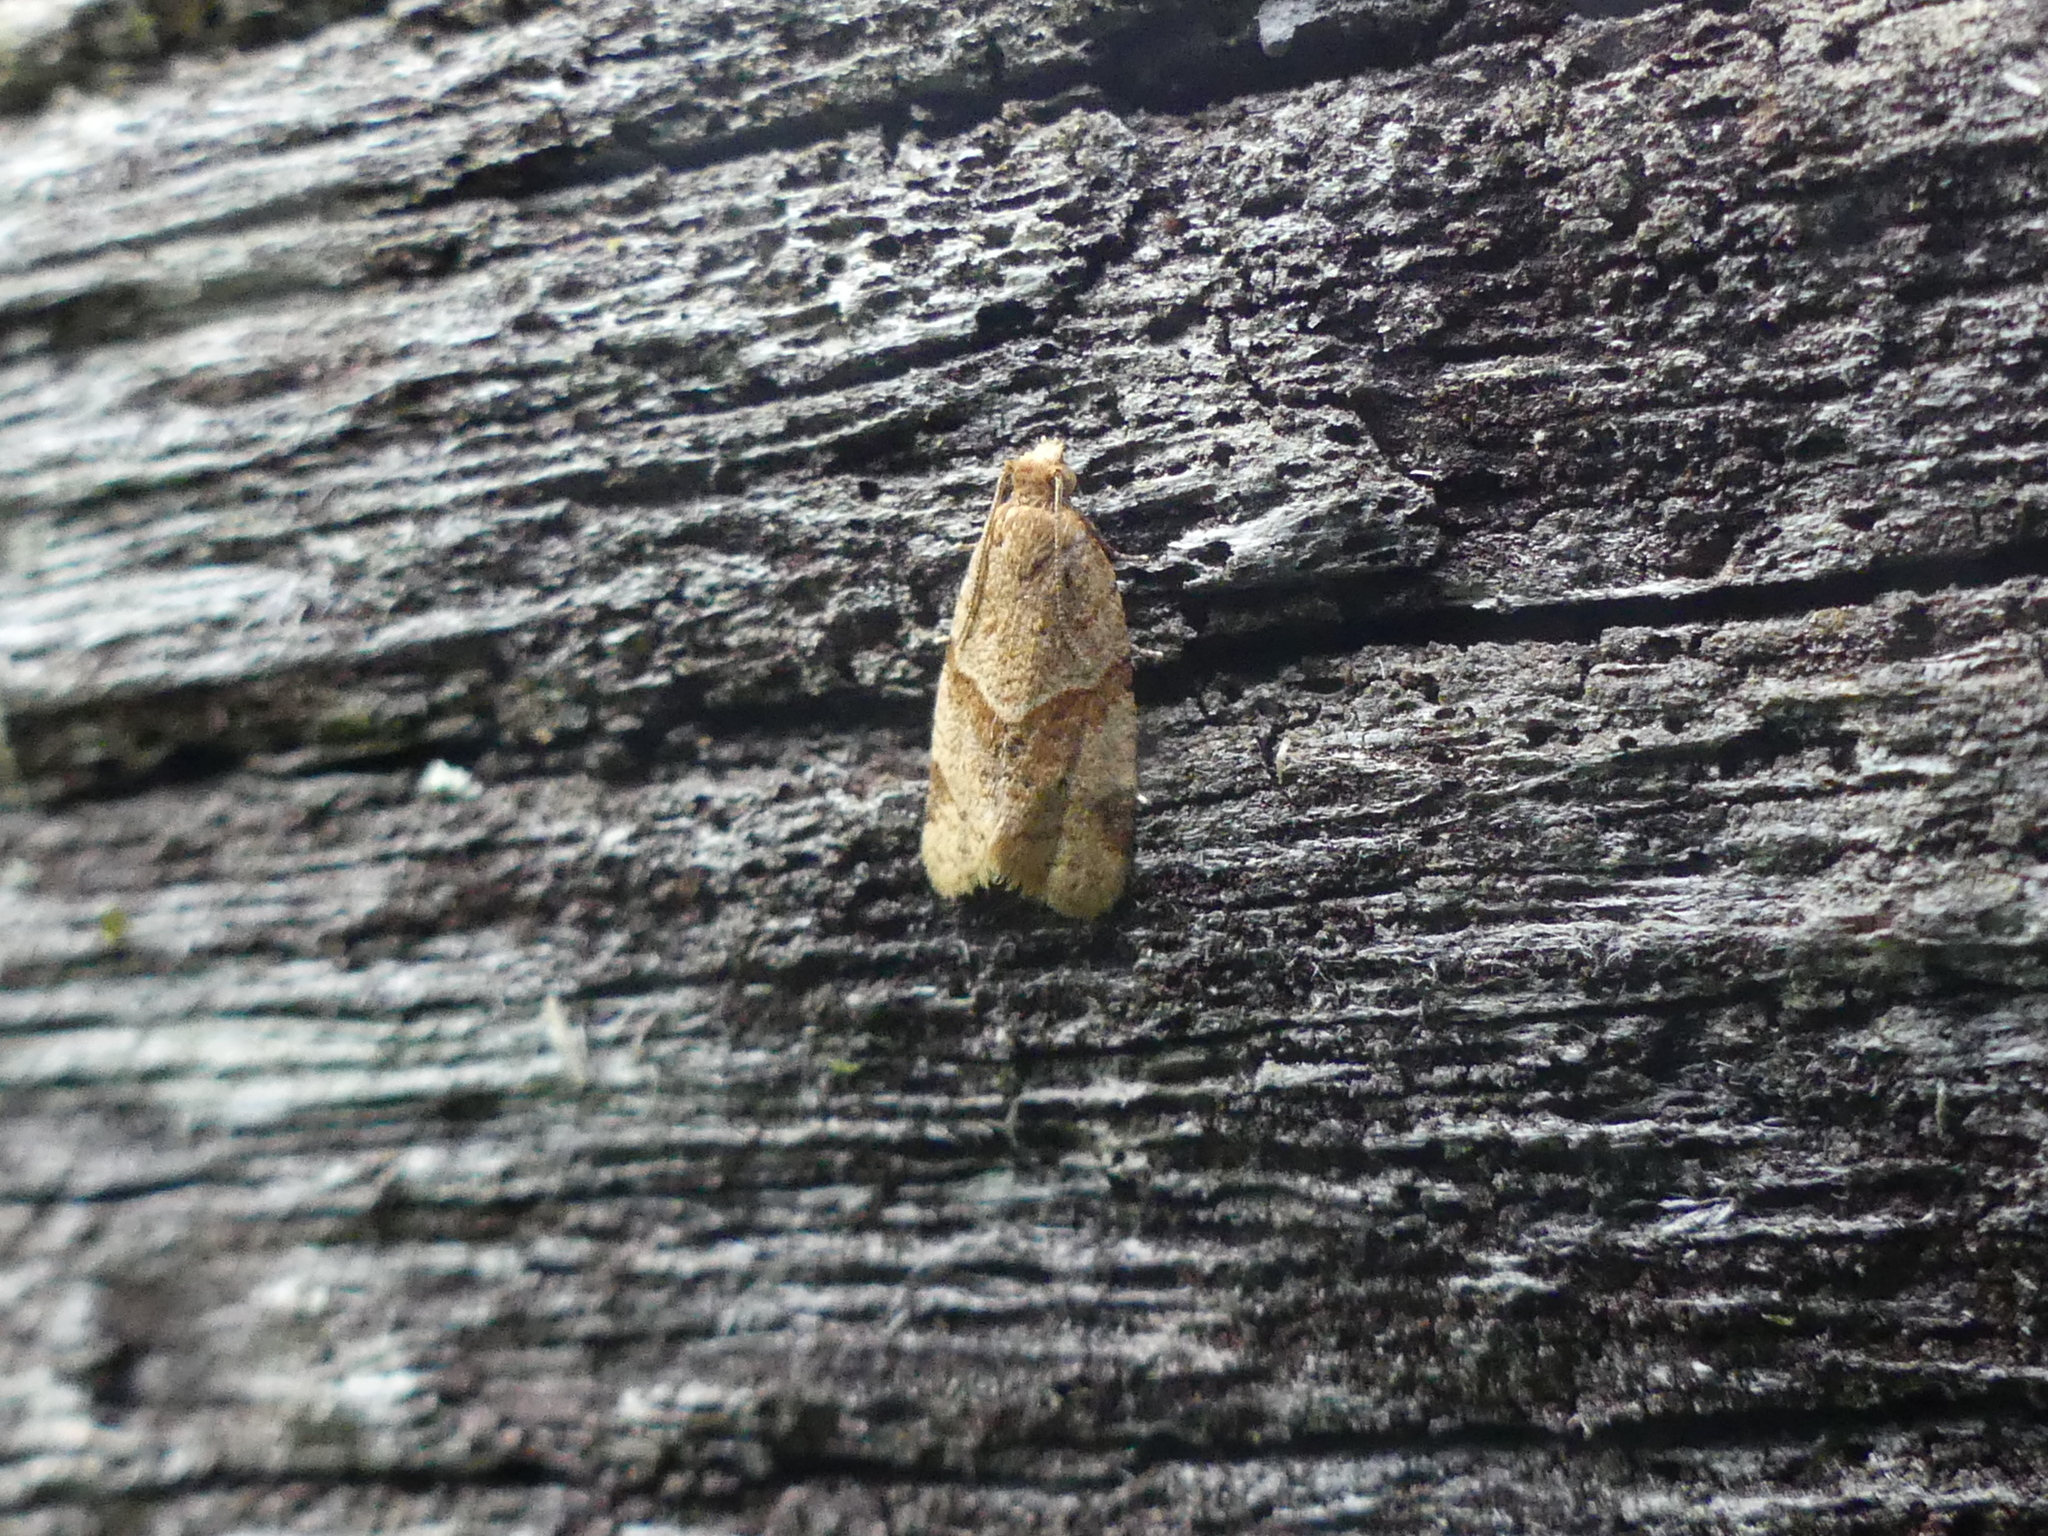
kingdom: Animalia
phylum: Arthropoda
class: Insecta
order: Lepidoptera
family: Tortricidae
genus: Clepsis
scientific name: Clepsis peritana
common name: Garden tortrix
